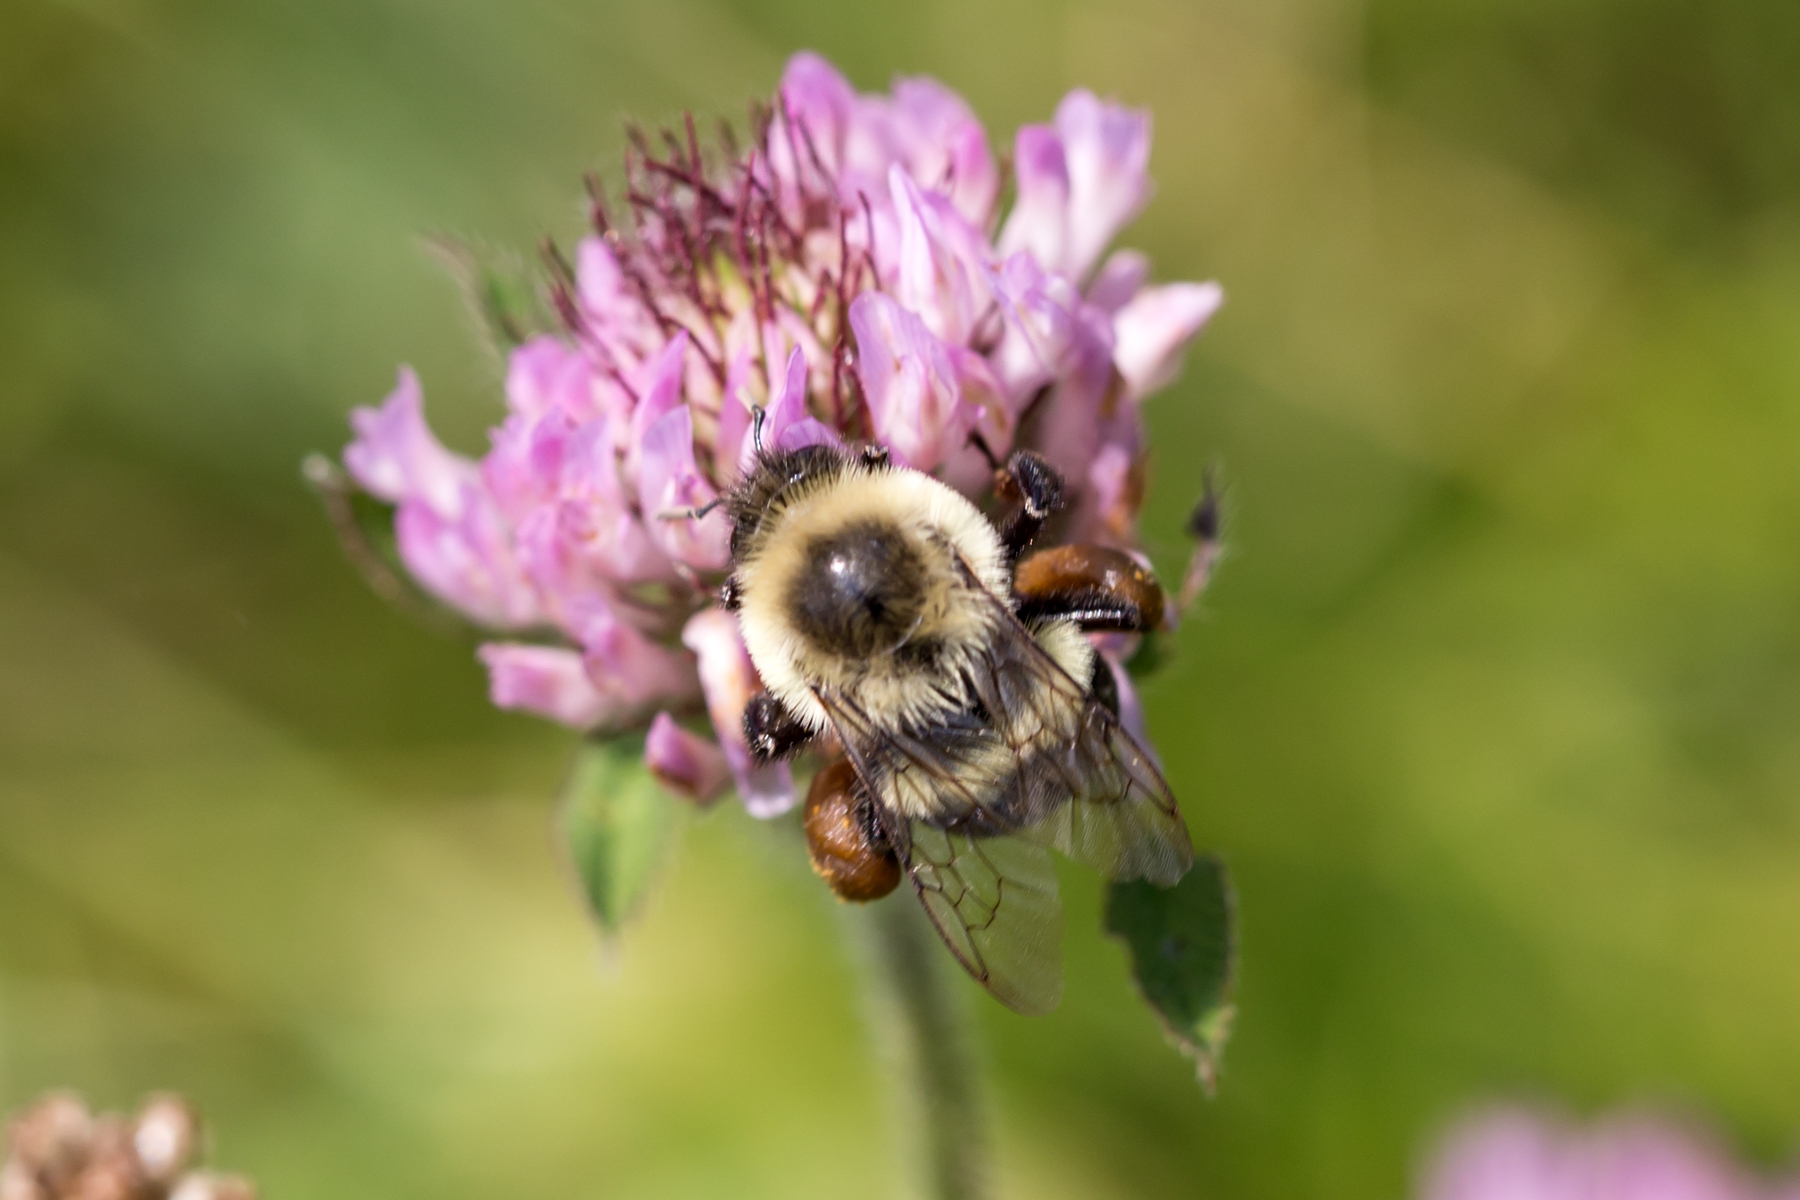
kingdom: Animalia
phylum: Arthropoda
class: Insecta
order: Hymenoptera
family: Apidae
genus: Bombus
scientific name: Bombus impatiens
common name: Common eastern bumble bee
